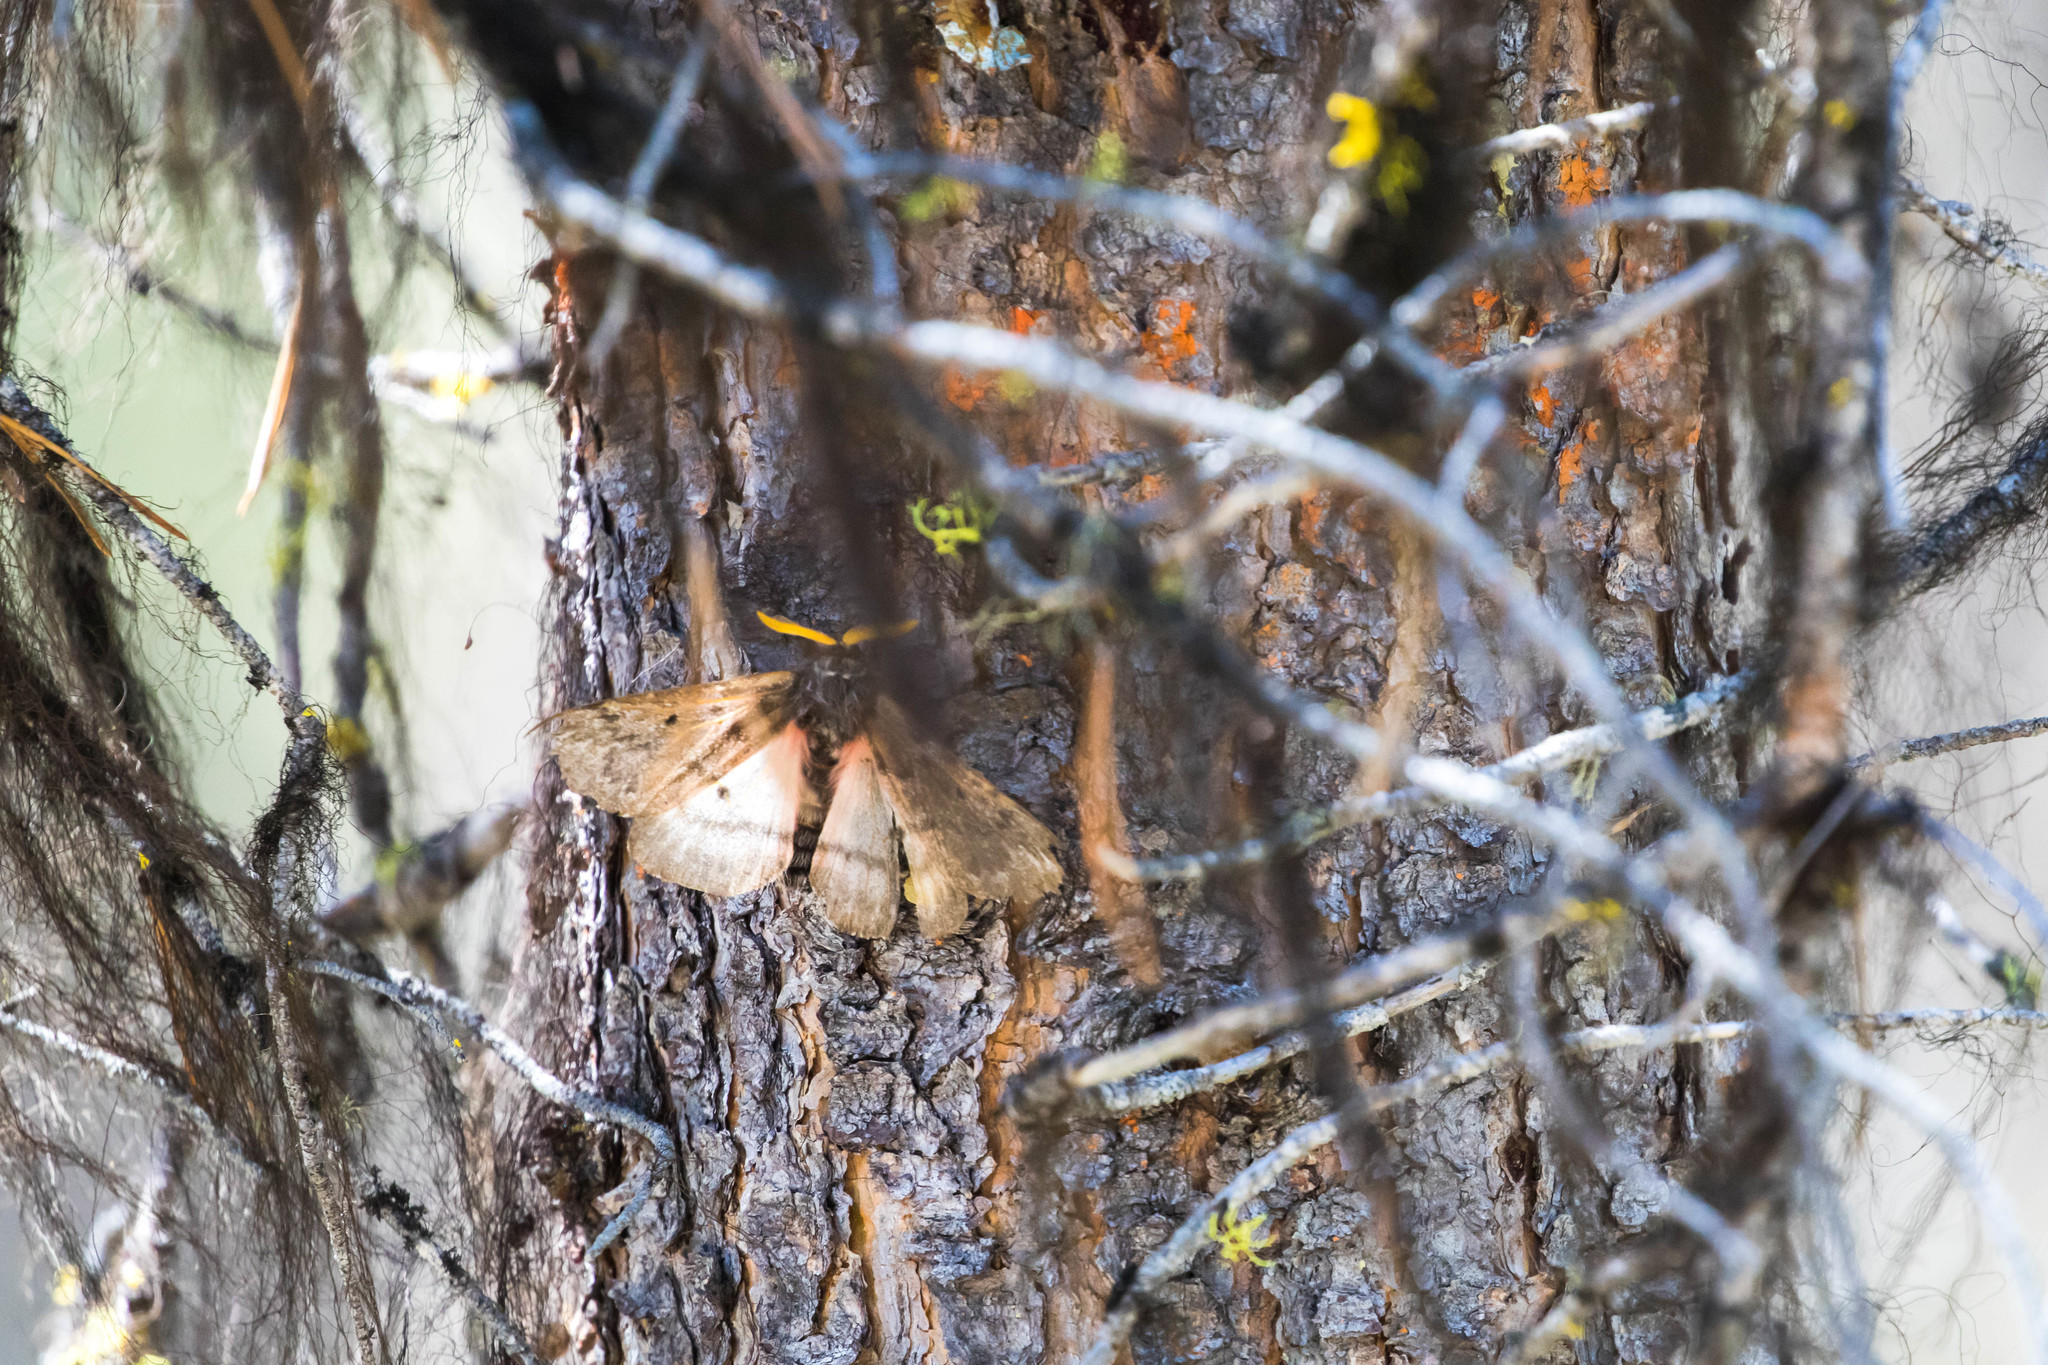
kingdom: Animalia
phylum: Arthropoda
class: Insecta
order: Lepidoptera
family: Saturniidae
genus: Coloradia
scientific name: Coloradia pandora
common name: Pandora pinemoth
